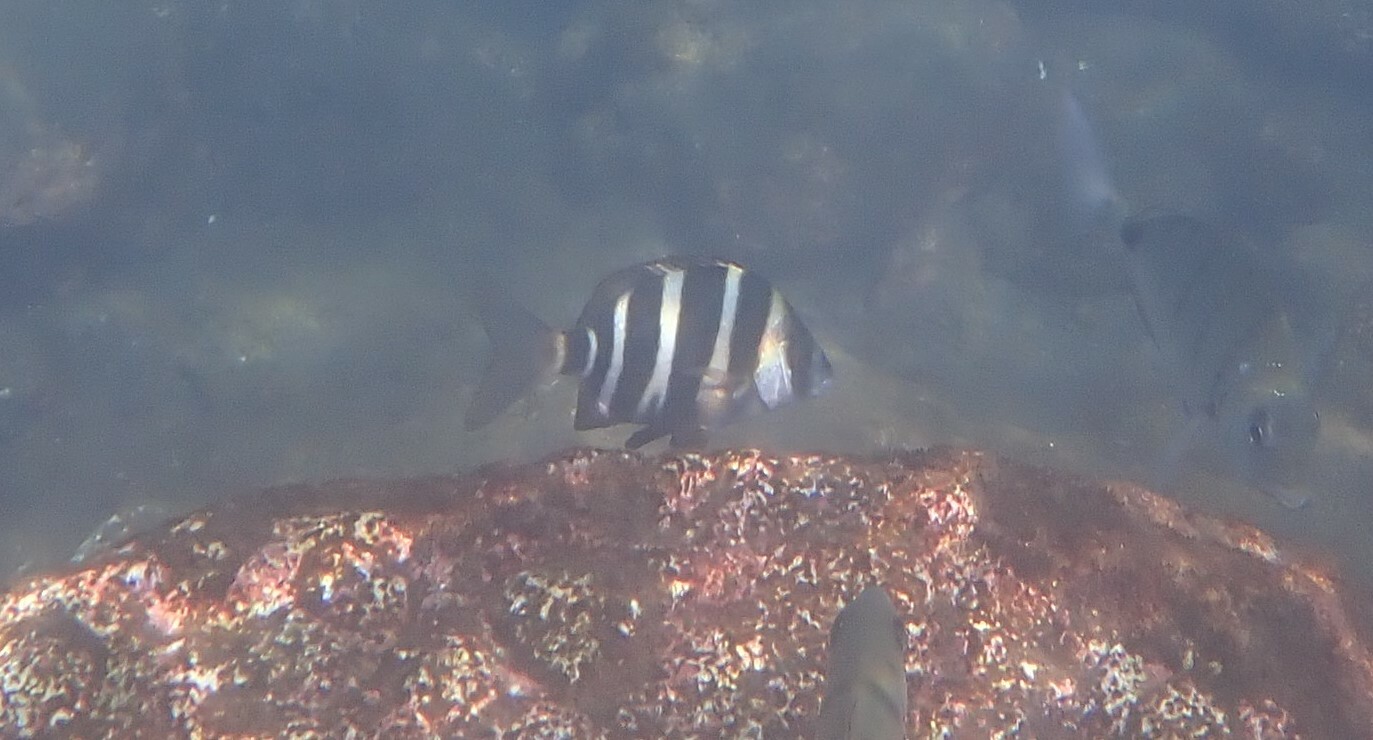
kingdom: Animalia
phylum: Chordata
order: Perciformes
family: Sparidae
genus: Diplodus
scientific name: Diplodus cervinus
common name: Oman porgy
